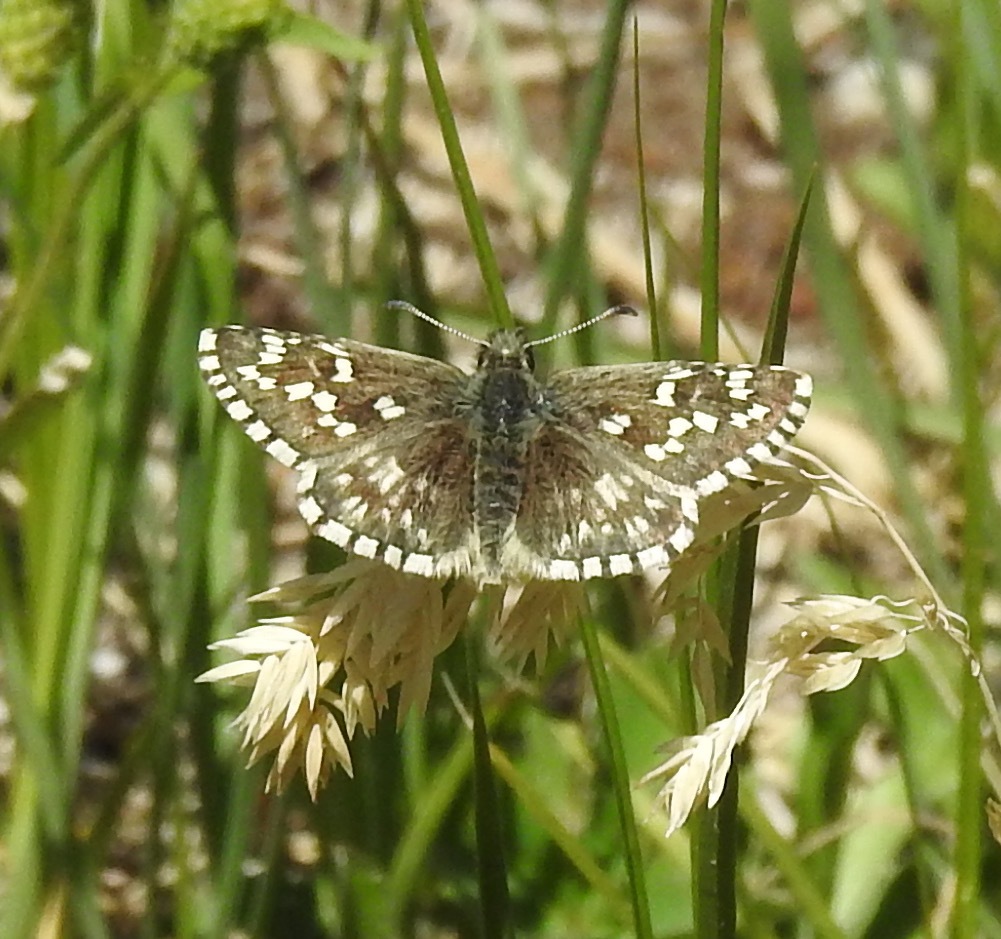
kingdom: Animalia
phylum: Arthropoda
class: Insecta
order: Lepidoptera
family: Hesperiidae
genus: Pyrgus
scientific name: Pyrgus centaureae
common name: Northern grizzled skipper
